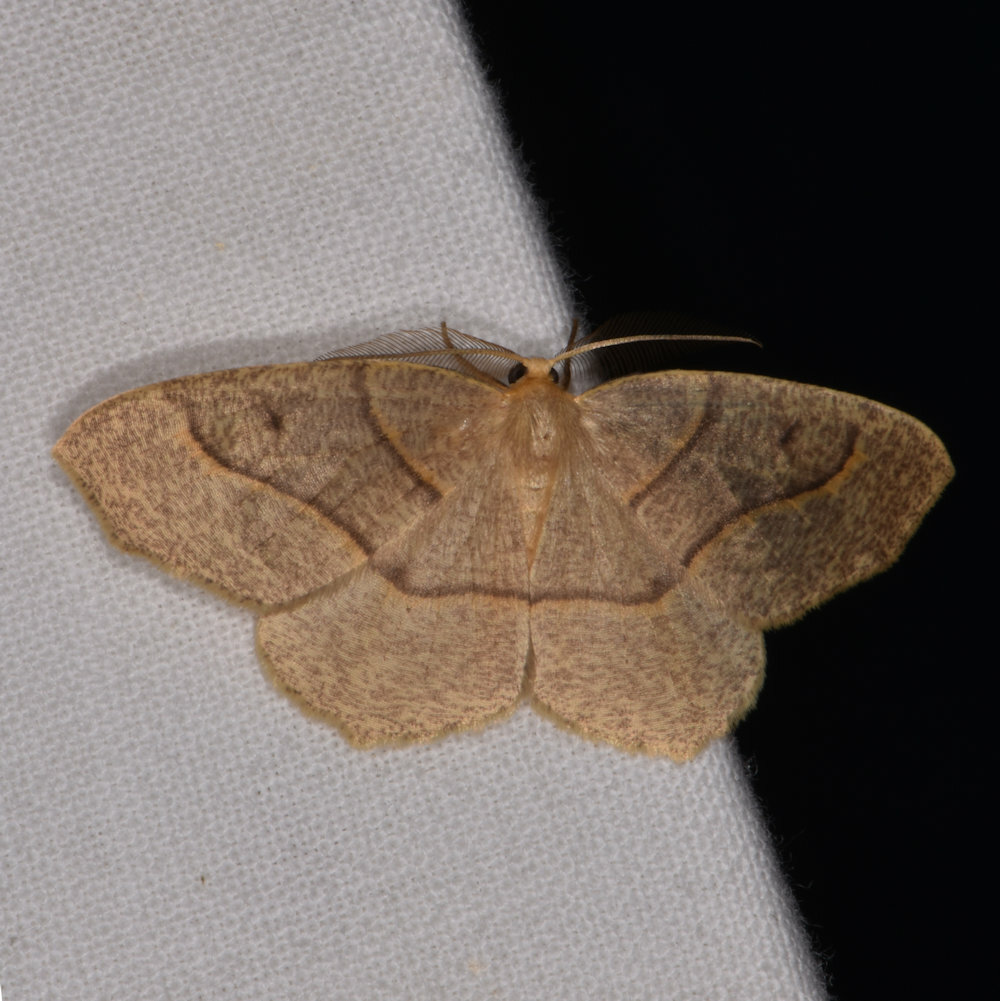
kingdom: Animalia
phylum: Arthropoda
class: Insecta
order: Lepidoptera
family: Geometridae
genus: Lambdina
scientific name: Lambdina fiscellaria
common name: Hemlock looper
